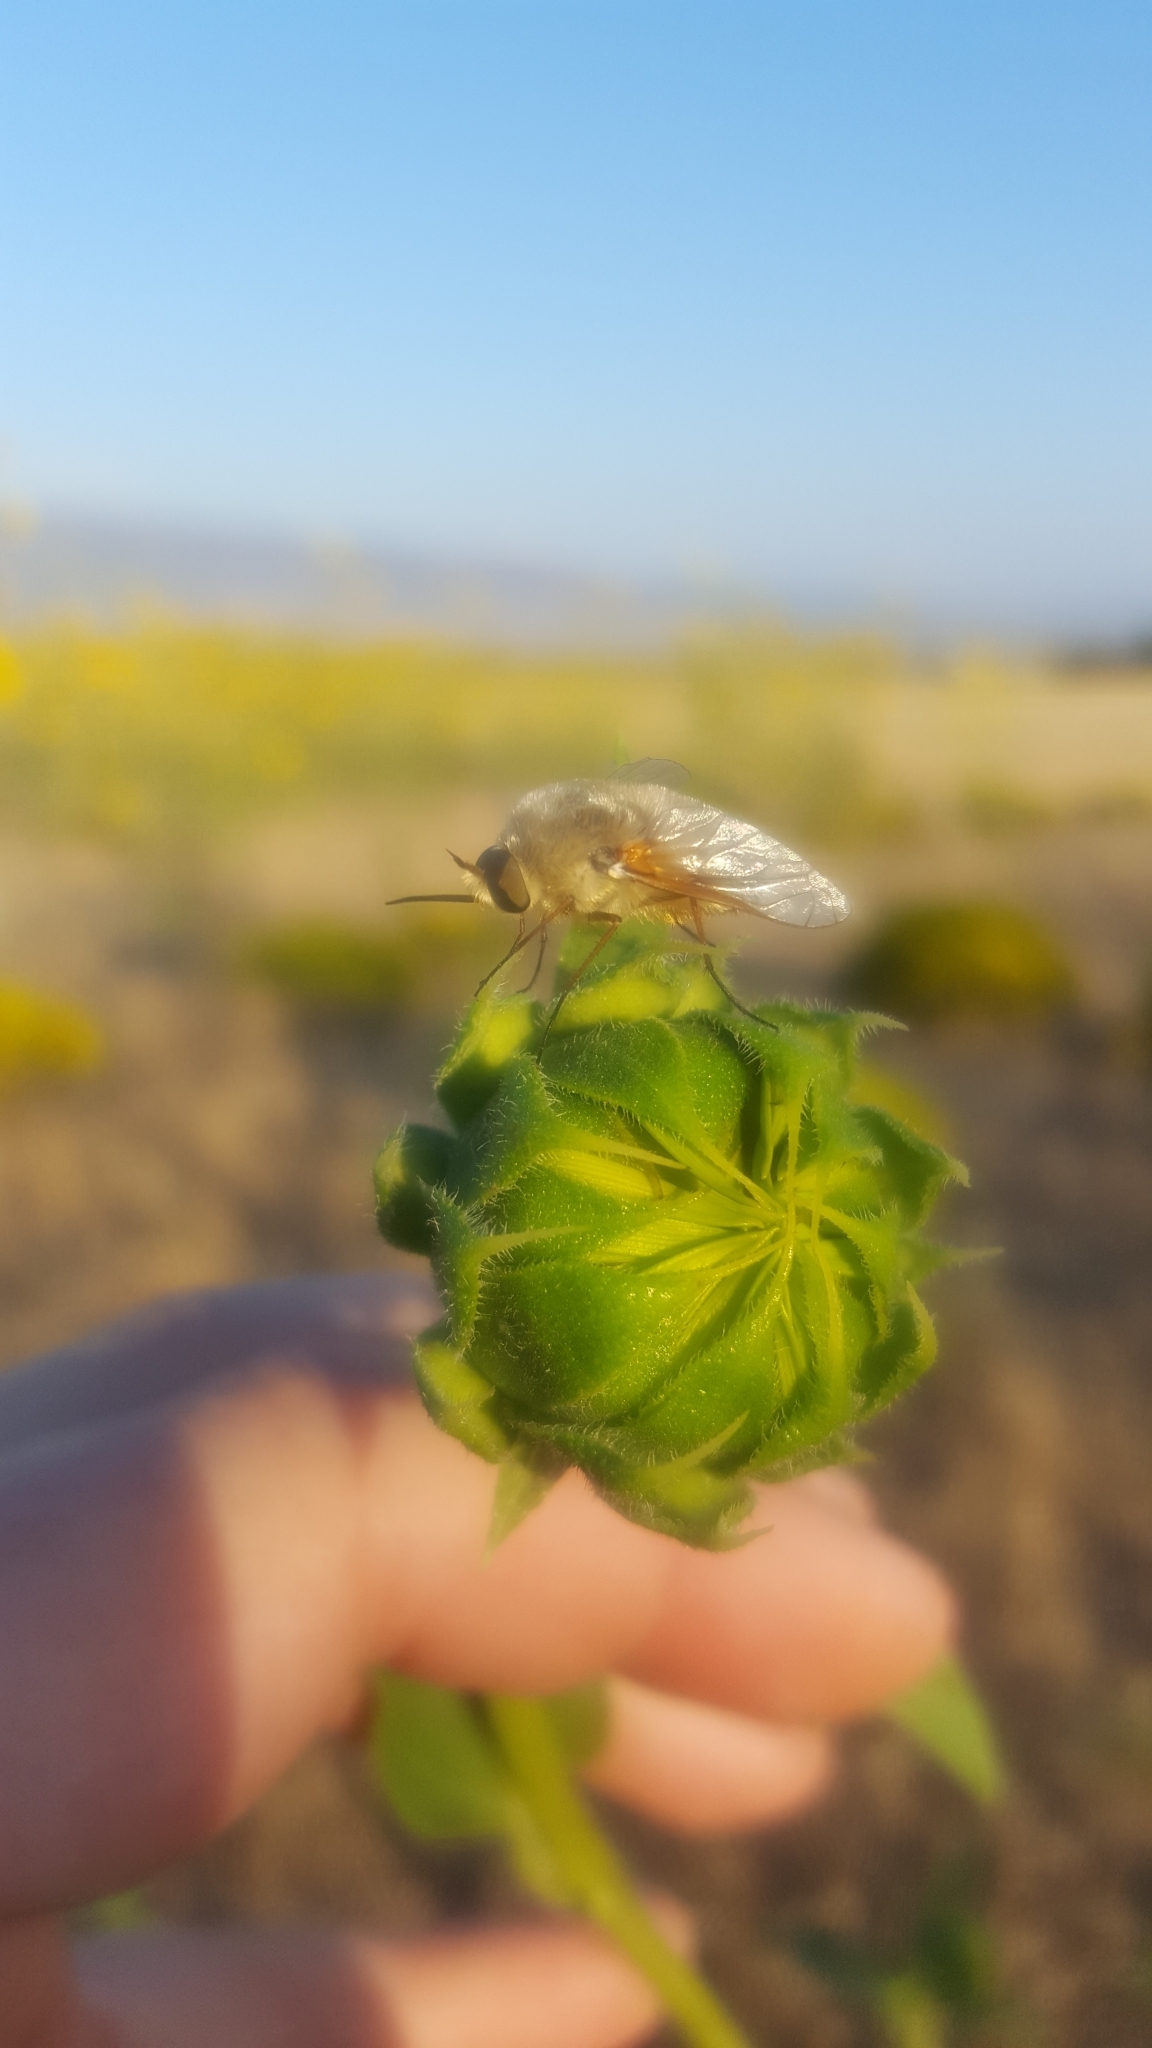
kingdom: Animalia
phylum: Arthropoda
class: Insecta
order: Diptera
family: Bombyliidae
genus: Lordotus
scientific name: Lordotus
